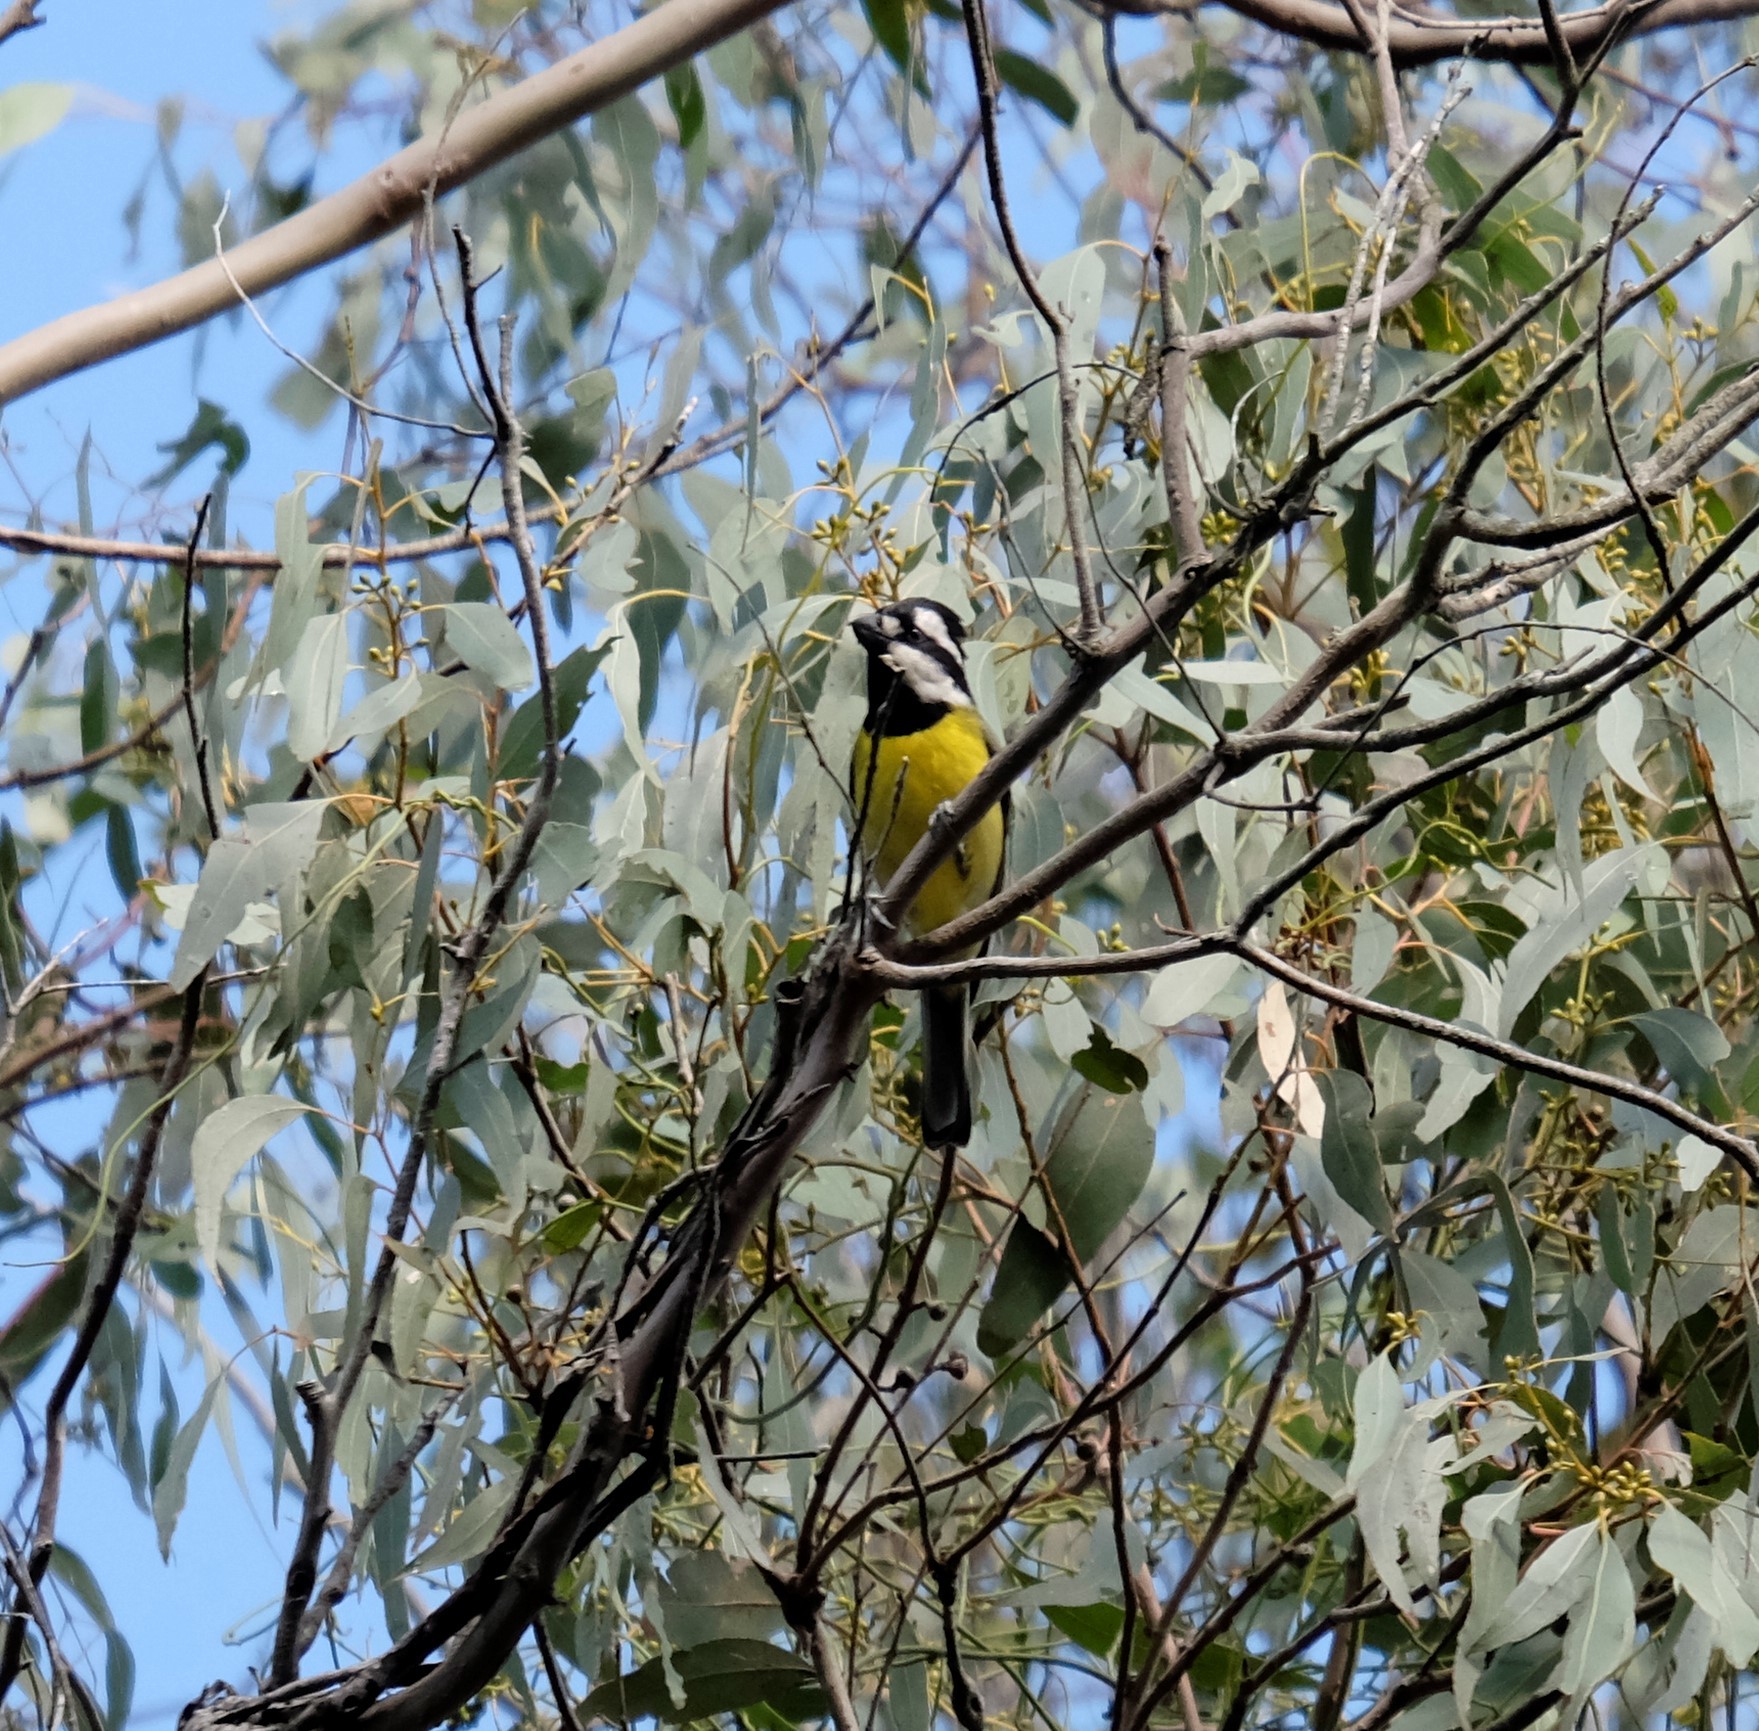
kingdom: Animalia
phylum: Chordata
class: Aves
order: Passeriformes
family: Pachycephalidae
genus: Falcunculus
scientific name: Falcunculus frontatus
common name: Crested shriketit
